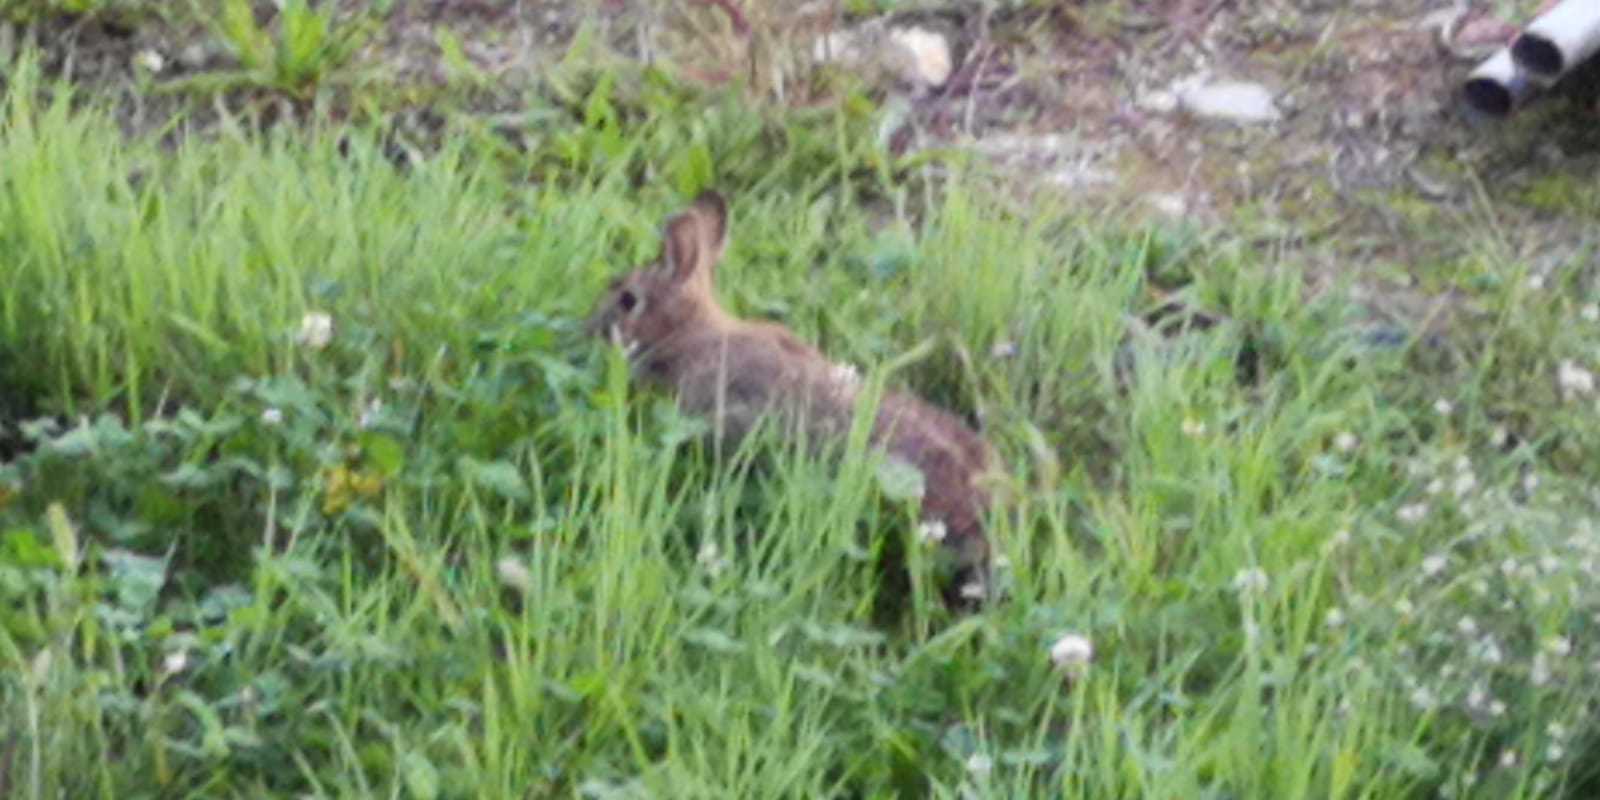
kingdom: Animalia
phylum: Chordata
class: Mammalia
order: Lagomorpha
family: Leporidae
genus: Sylvilagus
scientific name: Sylvilagus floridanus
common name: Eastern cottontail
